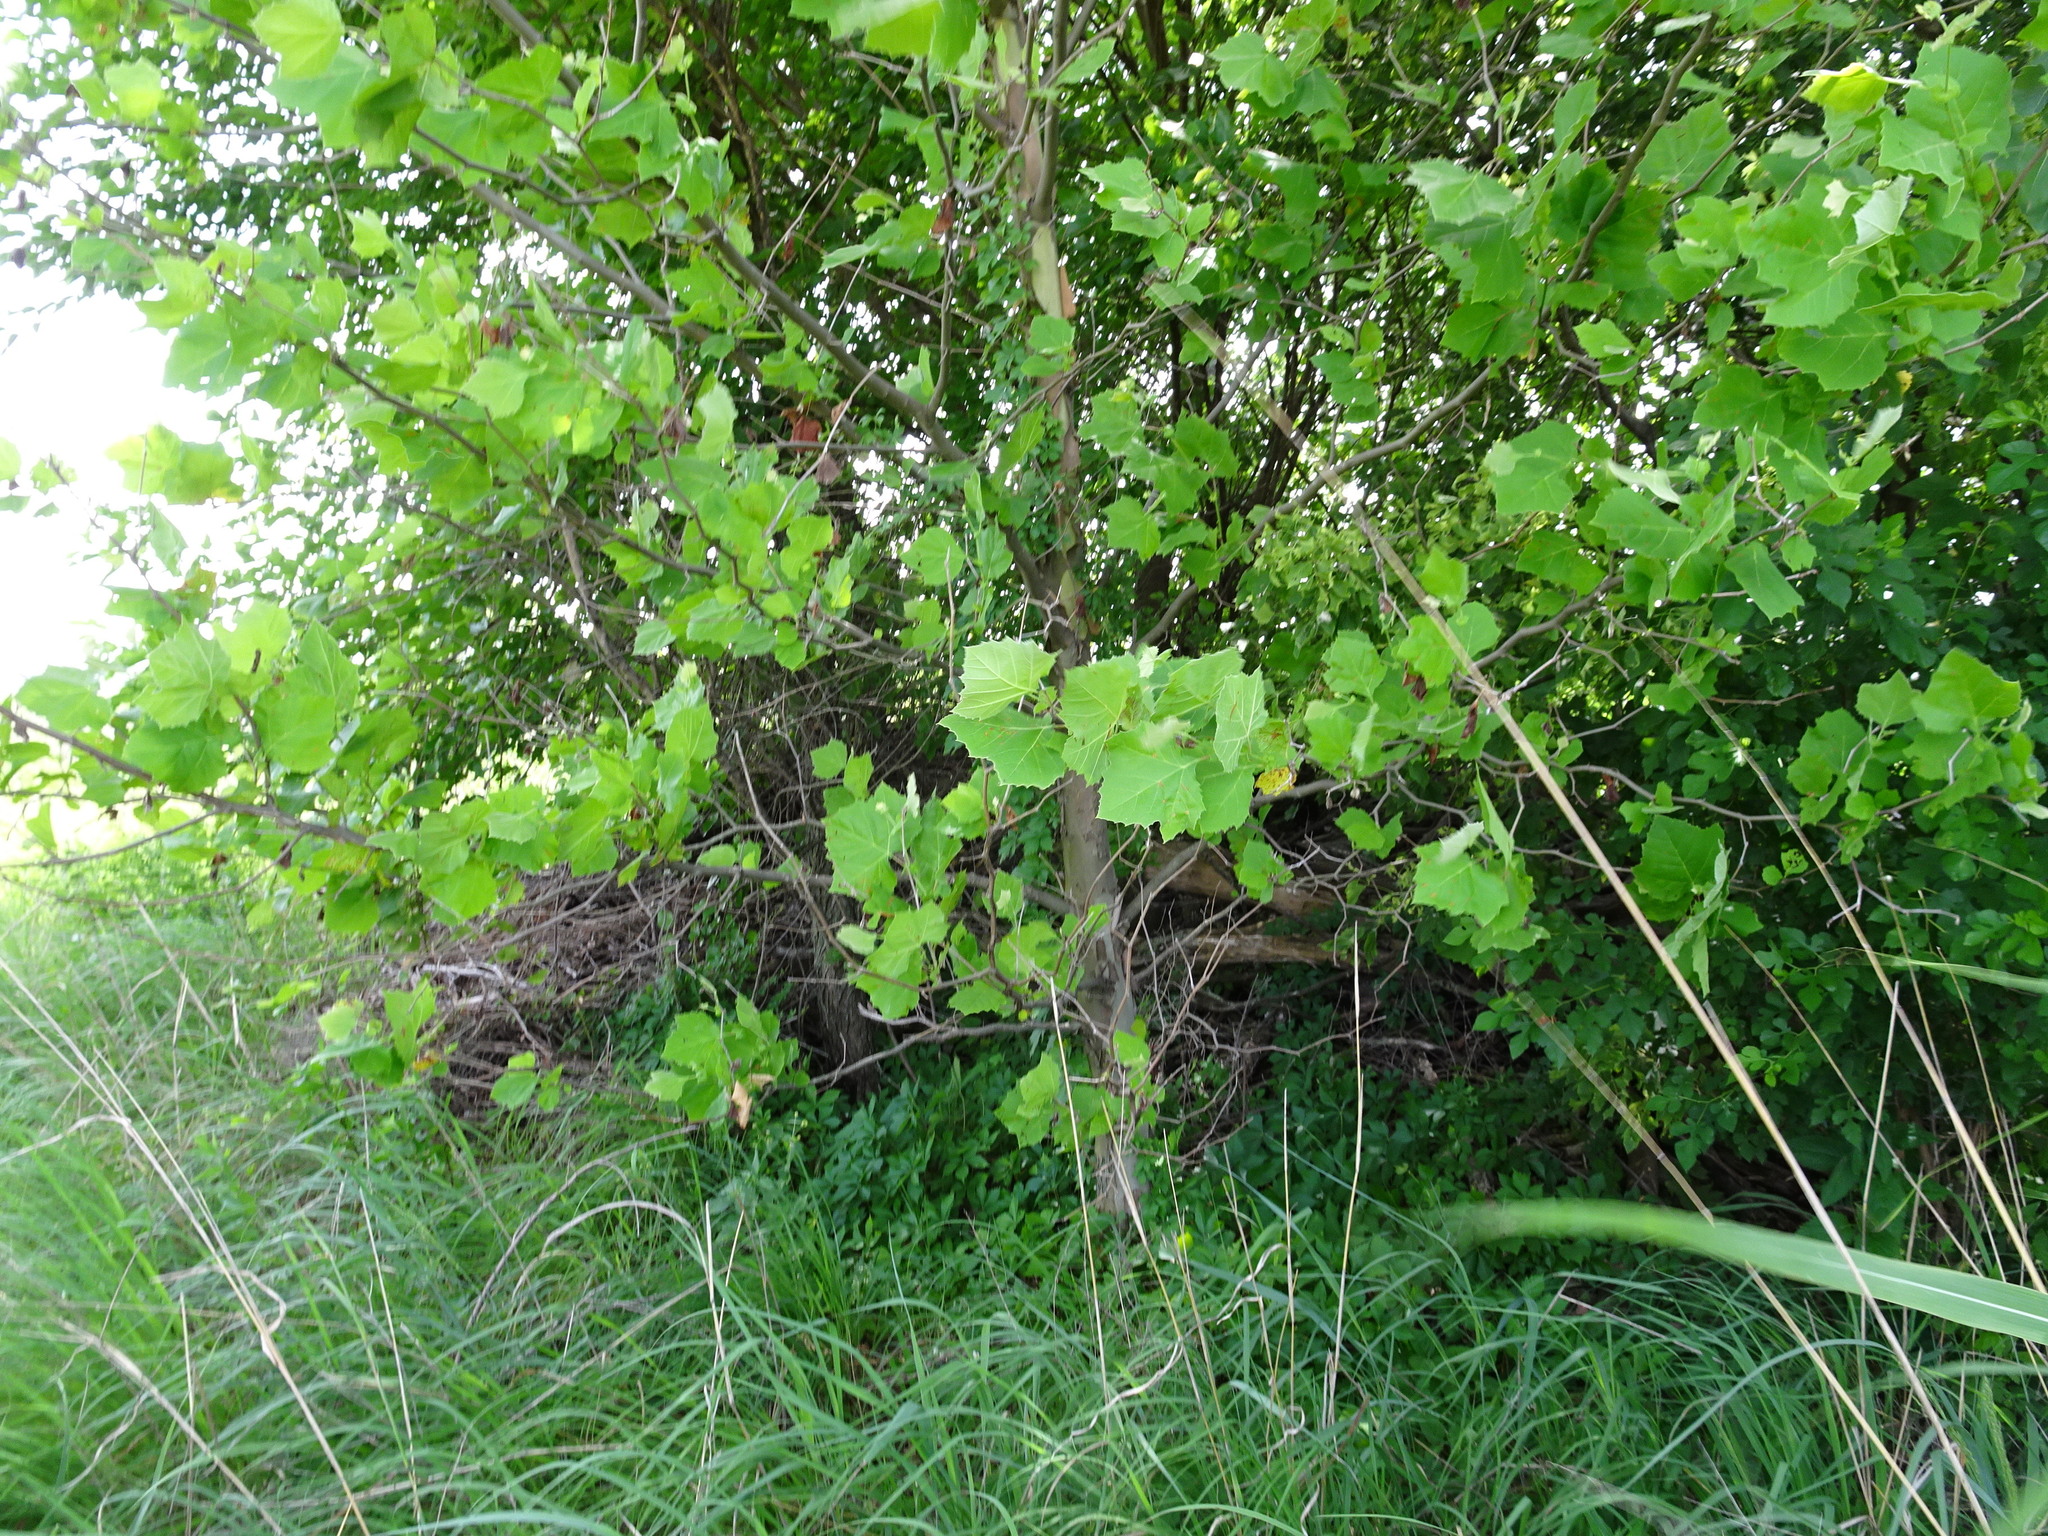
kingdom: Plantae
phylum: Tracheophyta
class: Magnoliopsida
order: Proteales
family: Platanaceae
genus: Platanus
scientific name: Platanus occidentalis
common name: American sycamore
